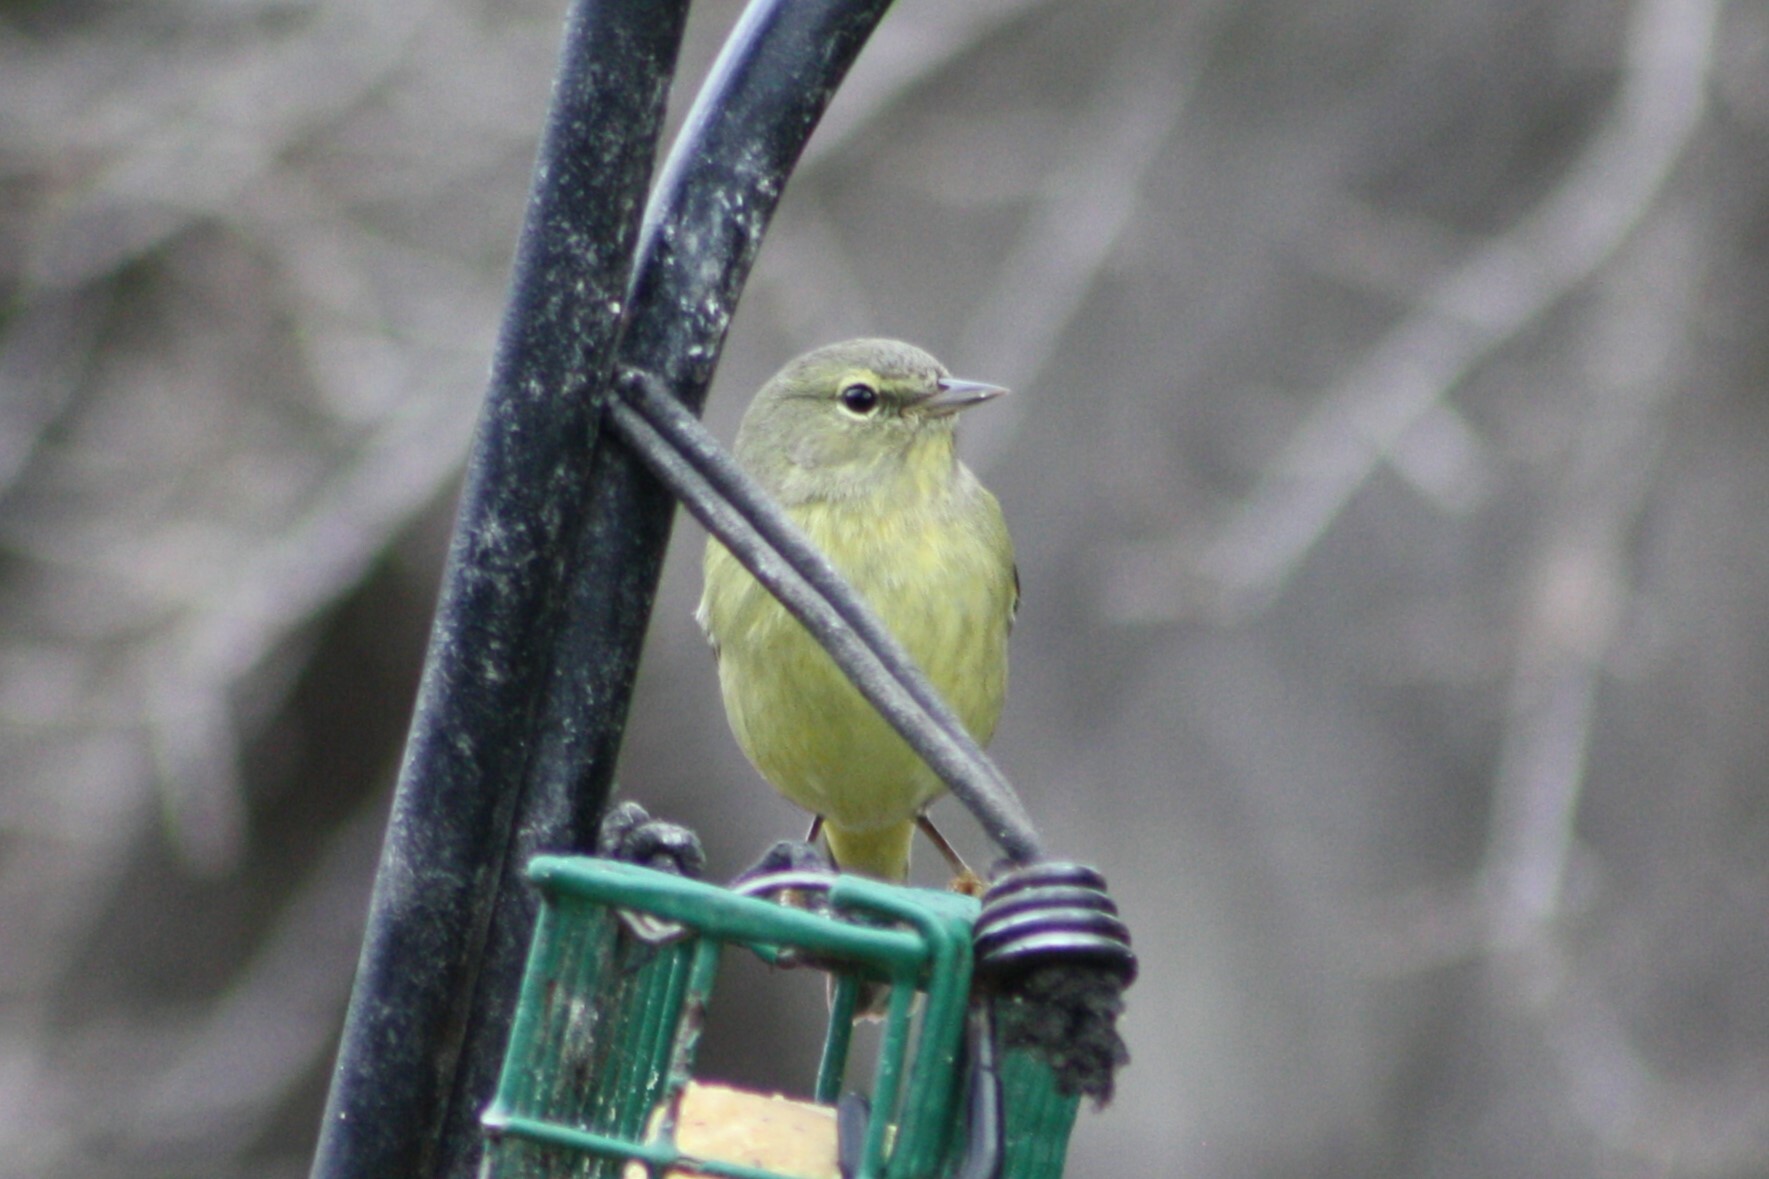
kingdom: Animalia
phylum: Chordata
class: Aves
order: Passeriformes
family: Parulidae
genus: Leiothlypis
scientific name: Leiothlypis celata
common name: Orange-crowned warbler
